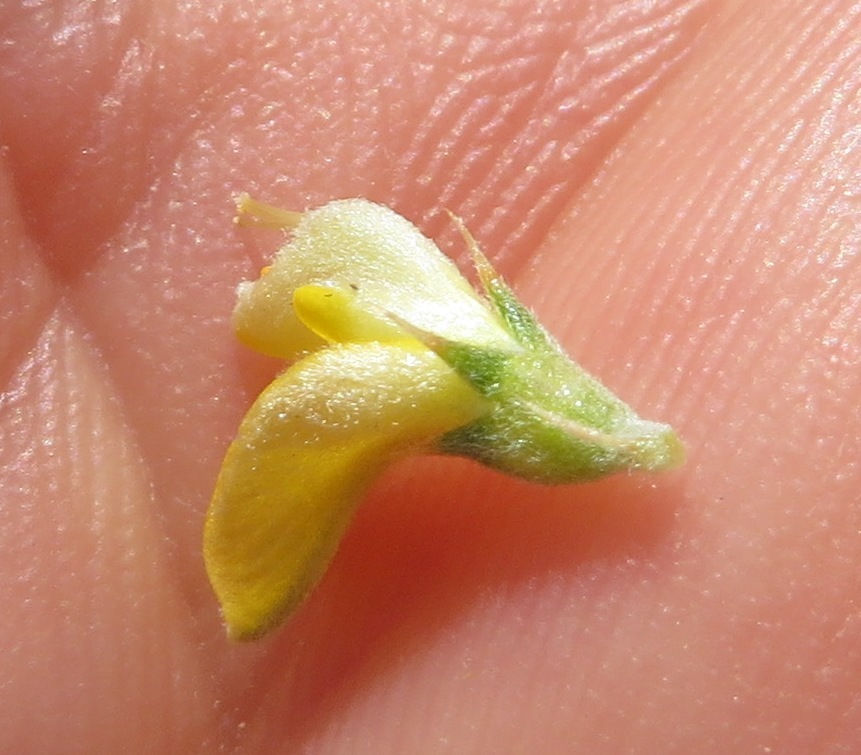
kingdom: Plantae
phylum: Tracheophyta
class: Magnoliopsida
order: Fabales
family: Fabaceae
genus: Aspalathus
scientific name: Aspalathus aristifolia
